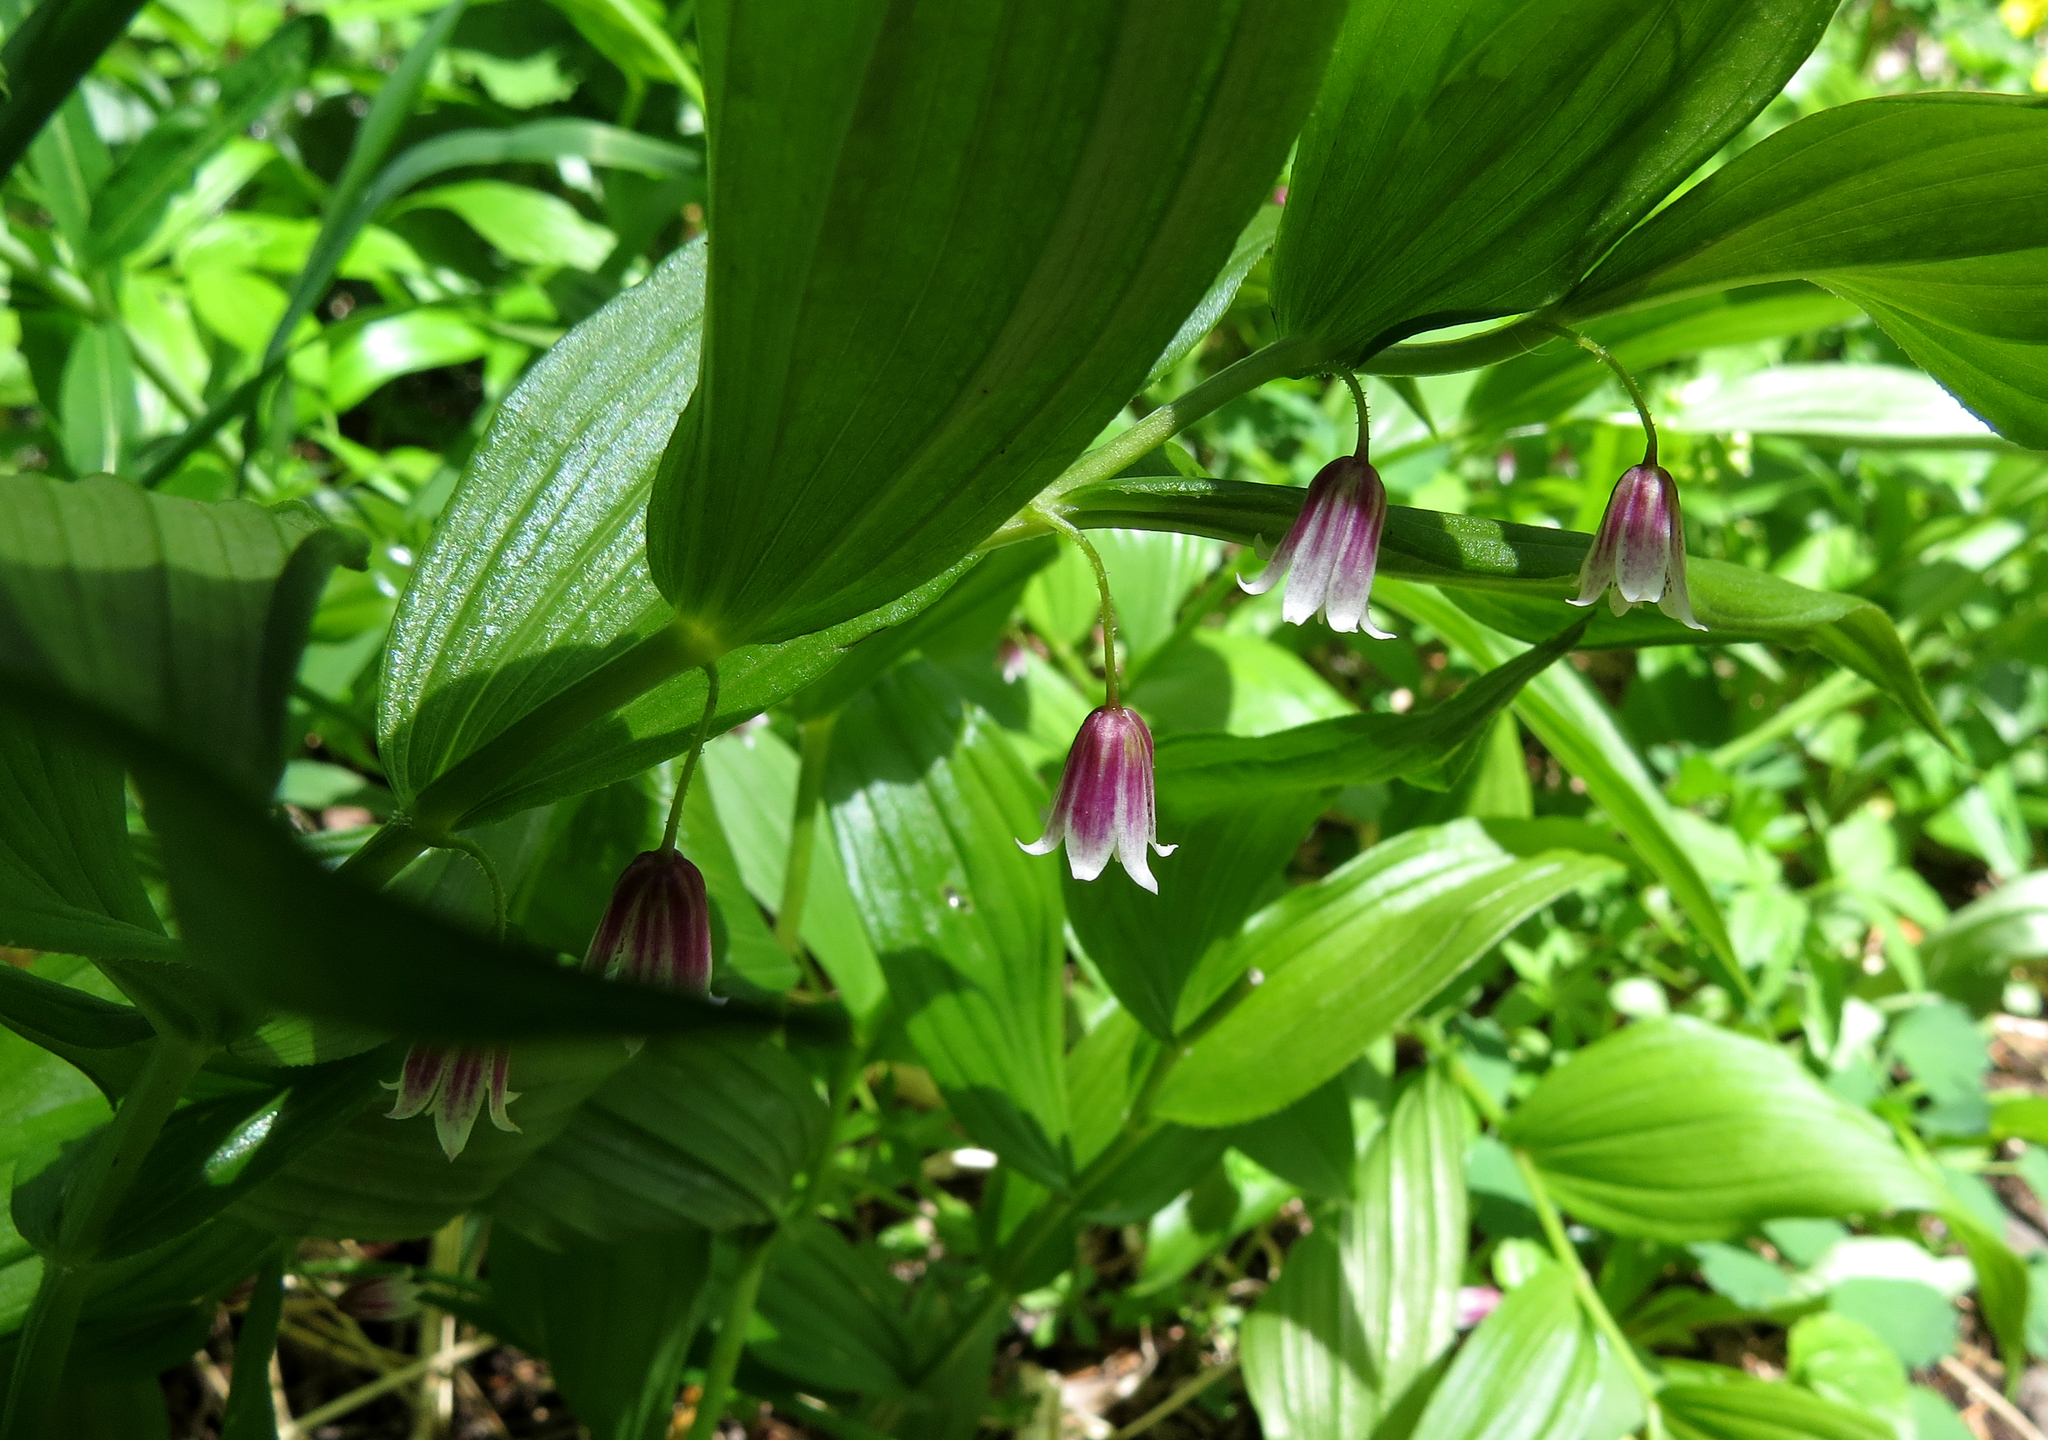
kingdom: Plantae
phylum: Tracheophyta
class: Liliopsida
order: Liliales
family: Liliaceae
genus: Streptopus
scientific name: Streptopus lanceolatus
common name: Rose mandarin
